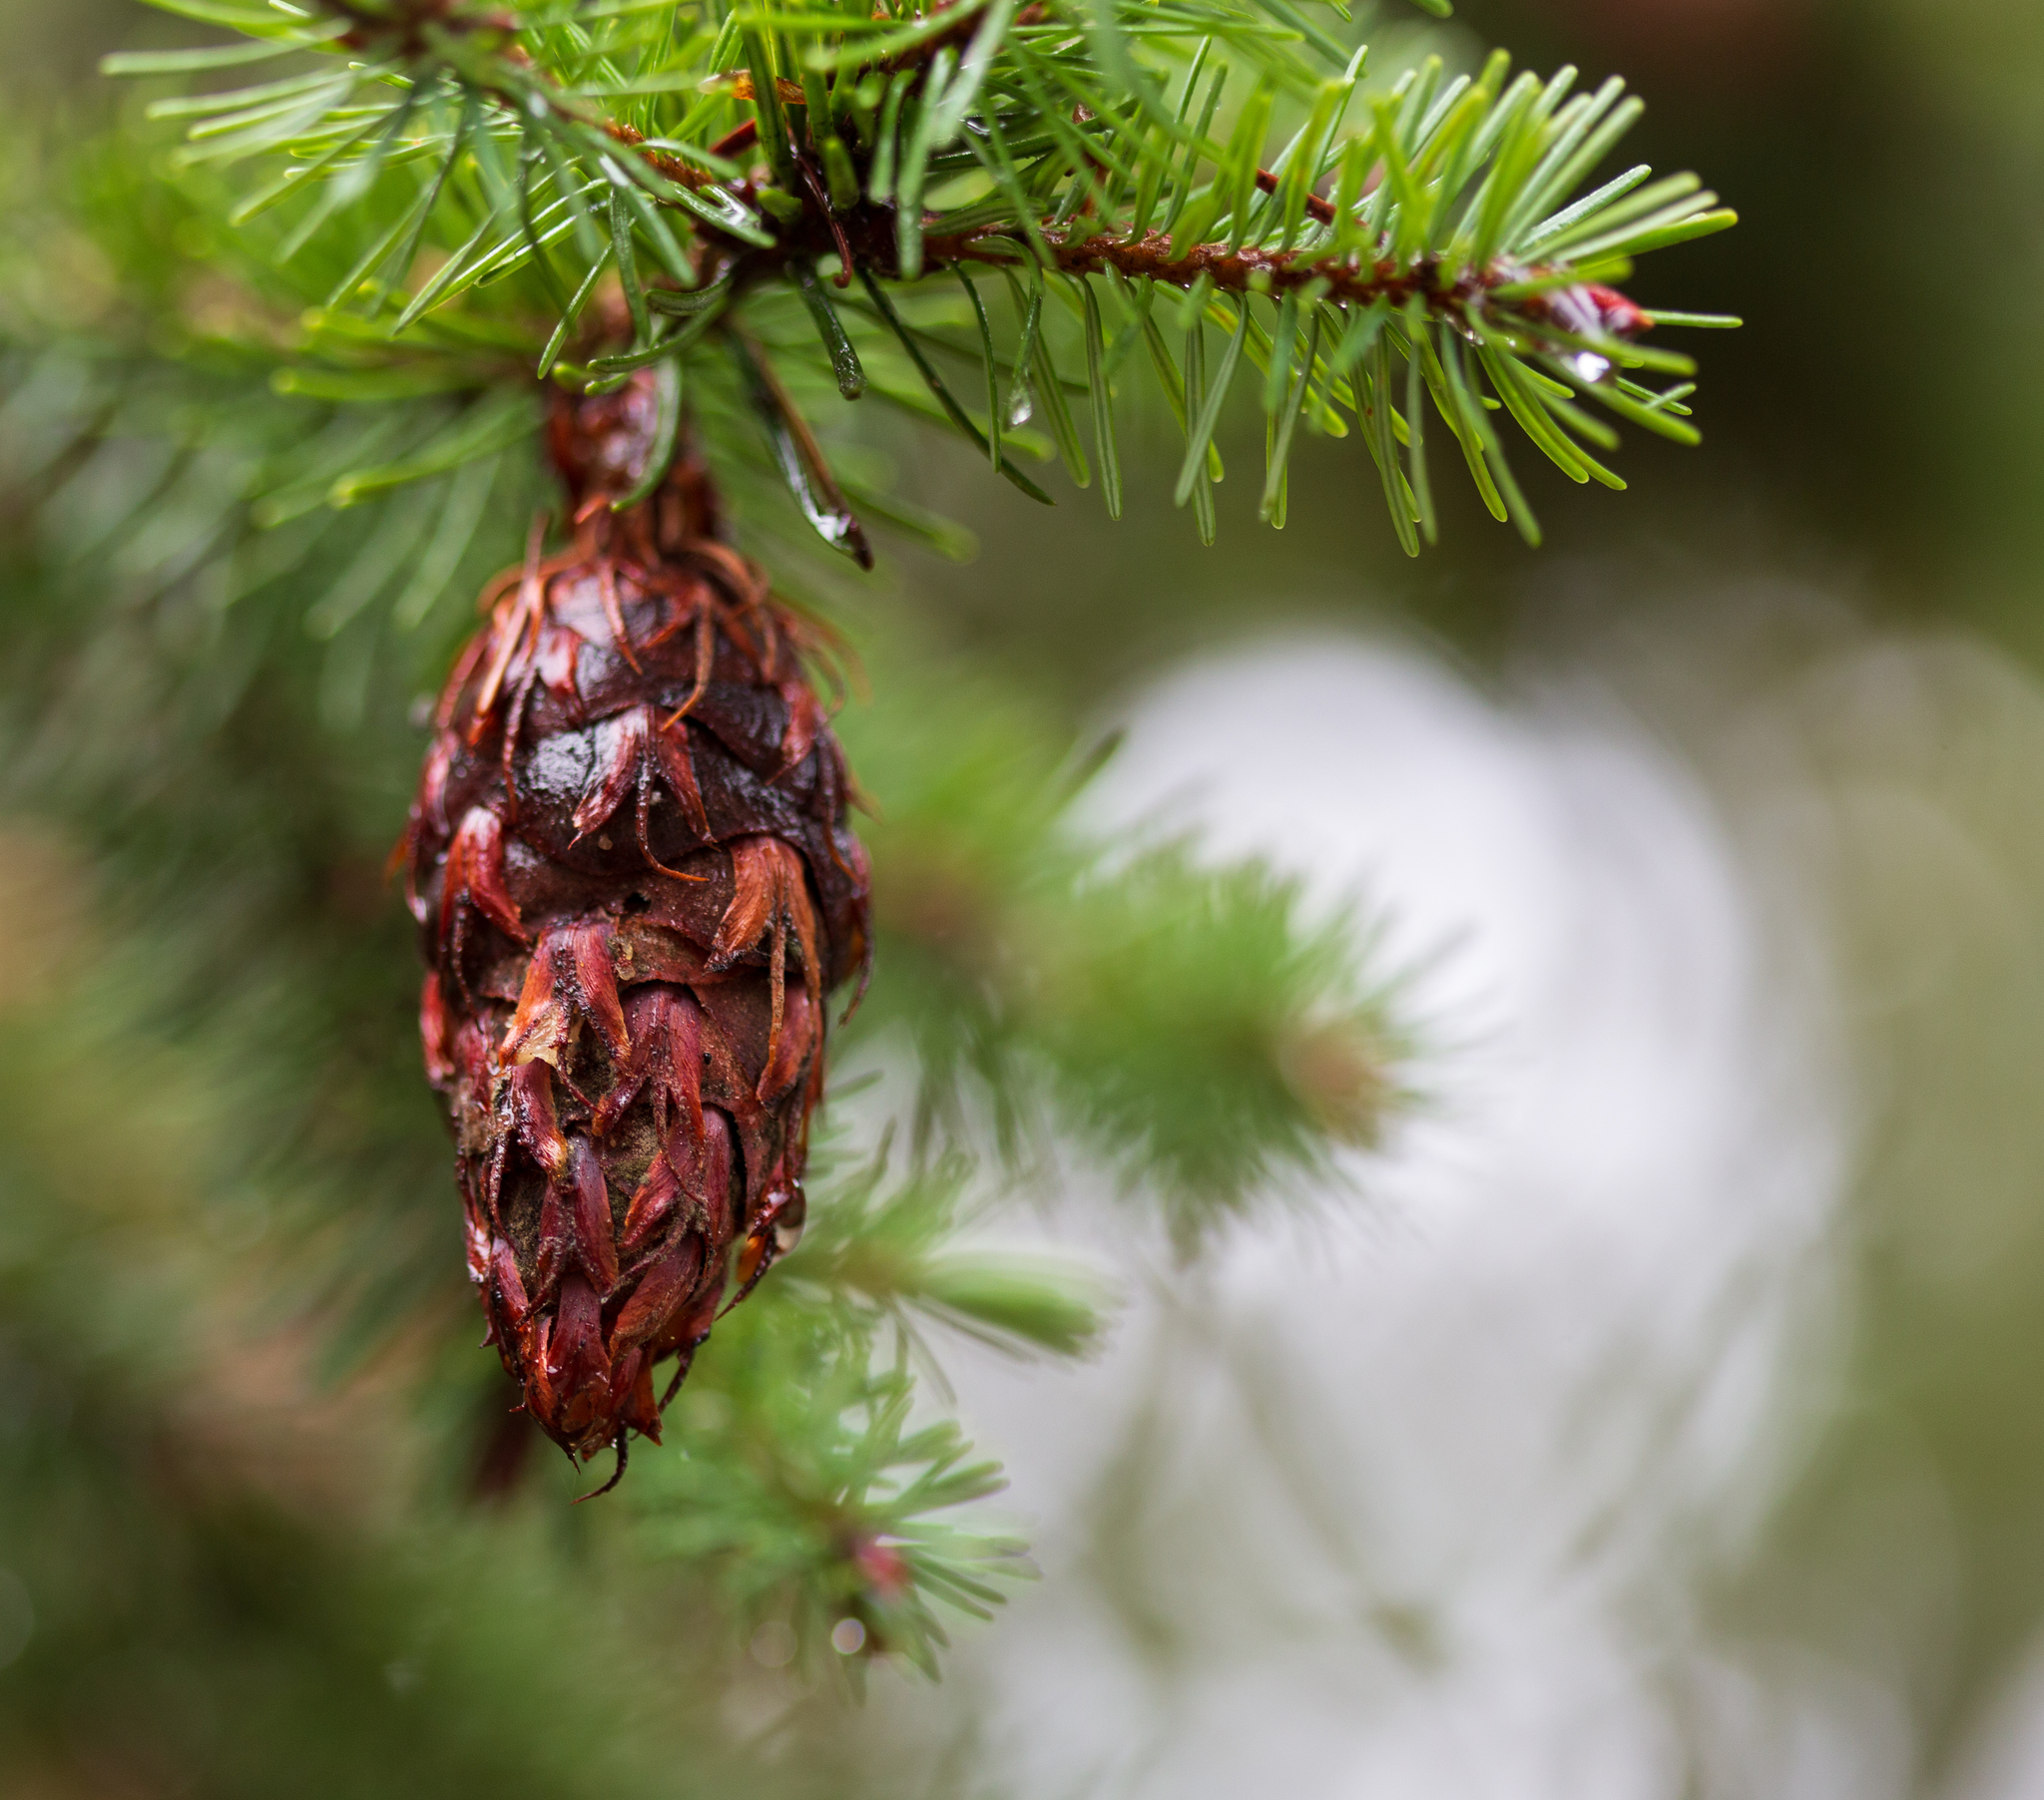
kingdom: Plantae
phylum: Tracheophyta
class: Pinopsida
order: Pinales
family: Pinaceae
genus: Pseudotsuga
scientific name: Pseudotsuga menziesii
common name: Douglas fir
